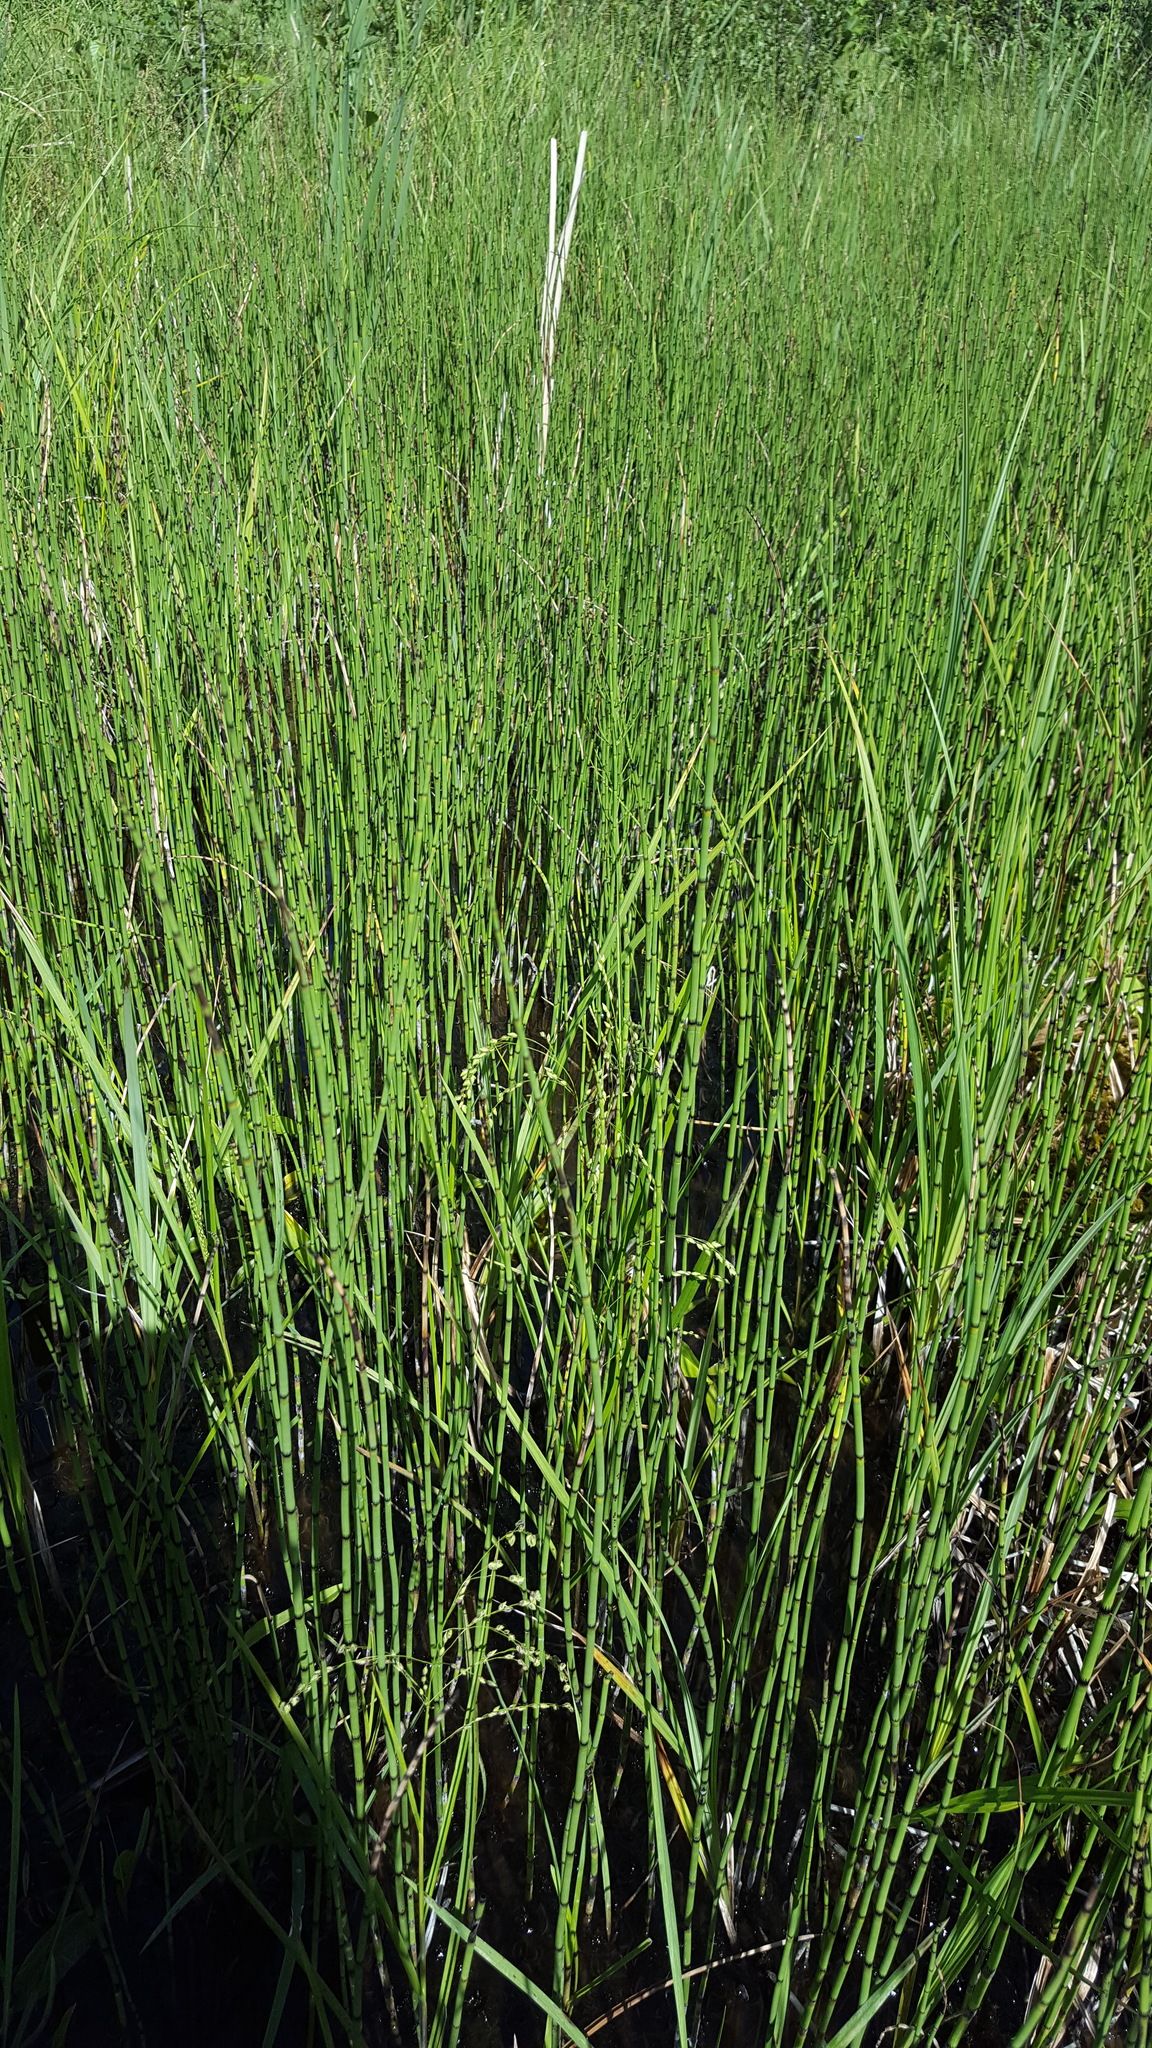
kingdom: Plantae
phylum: Tracheophyta
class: Polypodiopsida
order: Equisetales
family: Equisetaceae
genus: Equisetum
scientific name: Equisetum fluviatile
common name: Water horsetail
